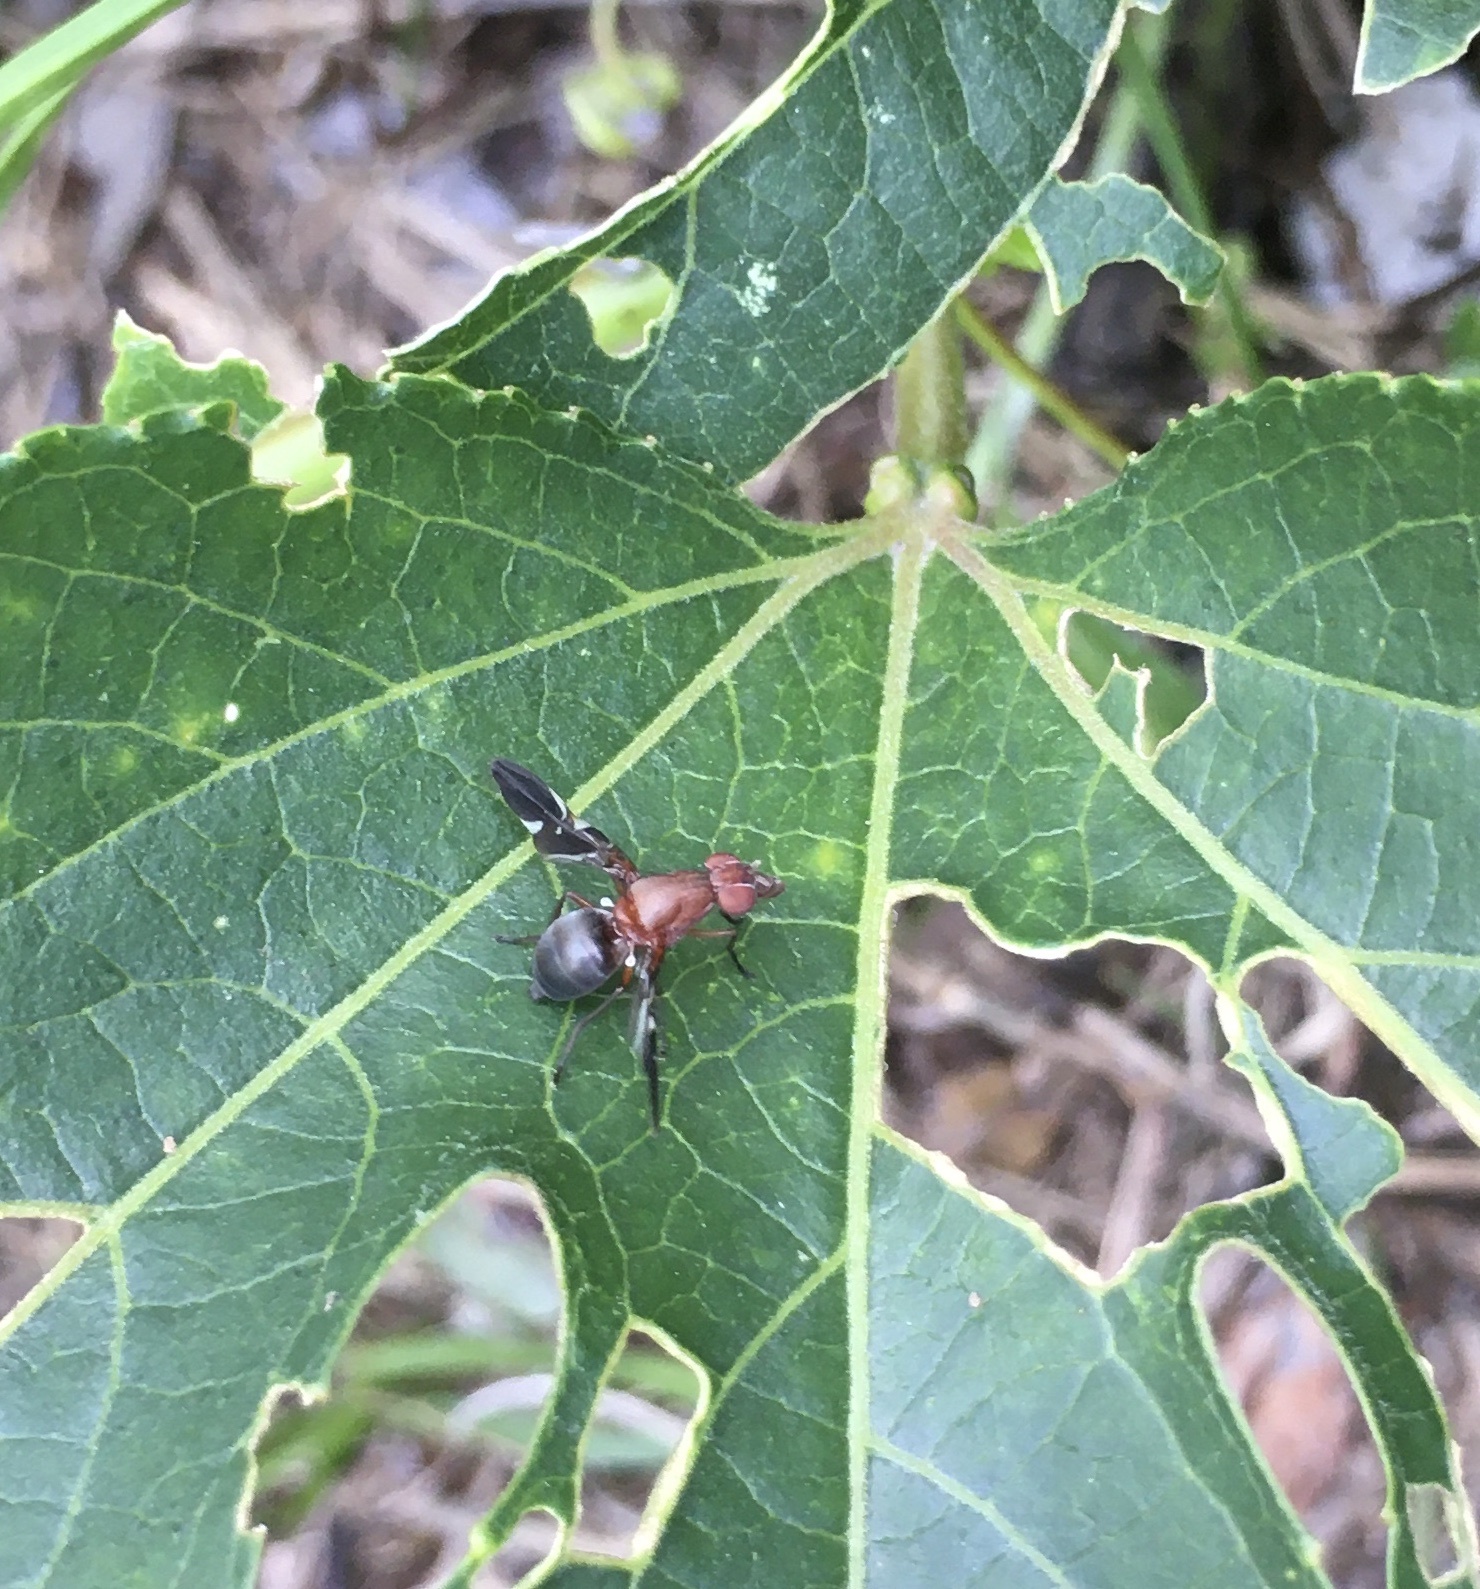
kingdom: Animalia
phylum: Arthropoda
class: Insecta
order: Diptera
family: Ulidiidae
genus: Delphinia
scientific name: Delphinia picta
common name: Common picture-winged fly
